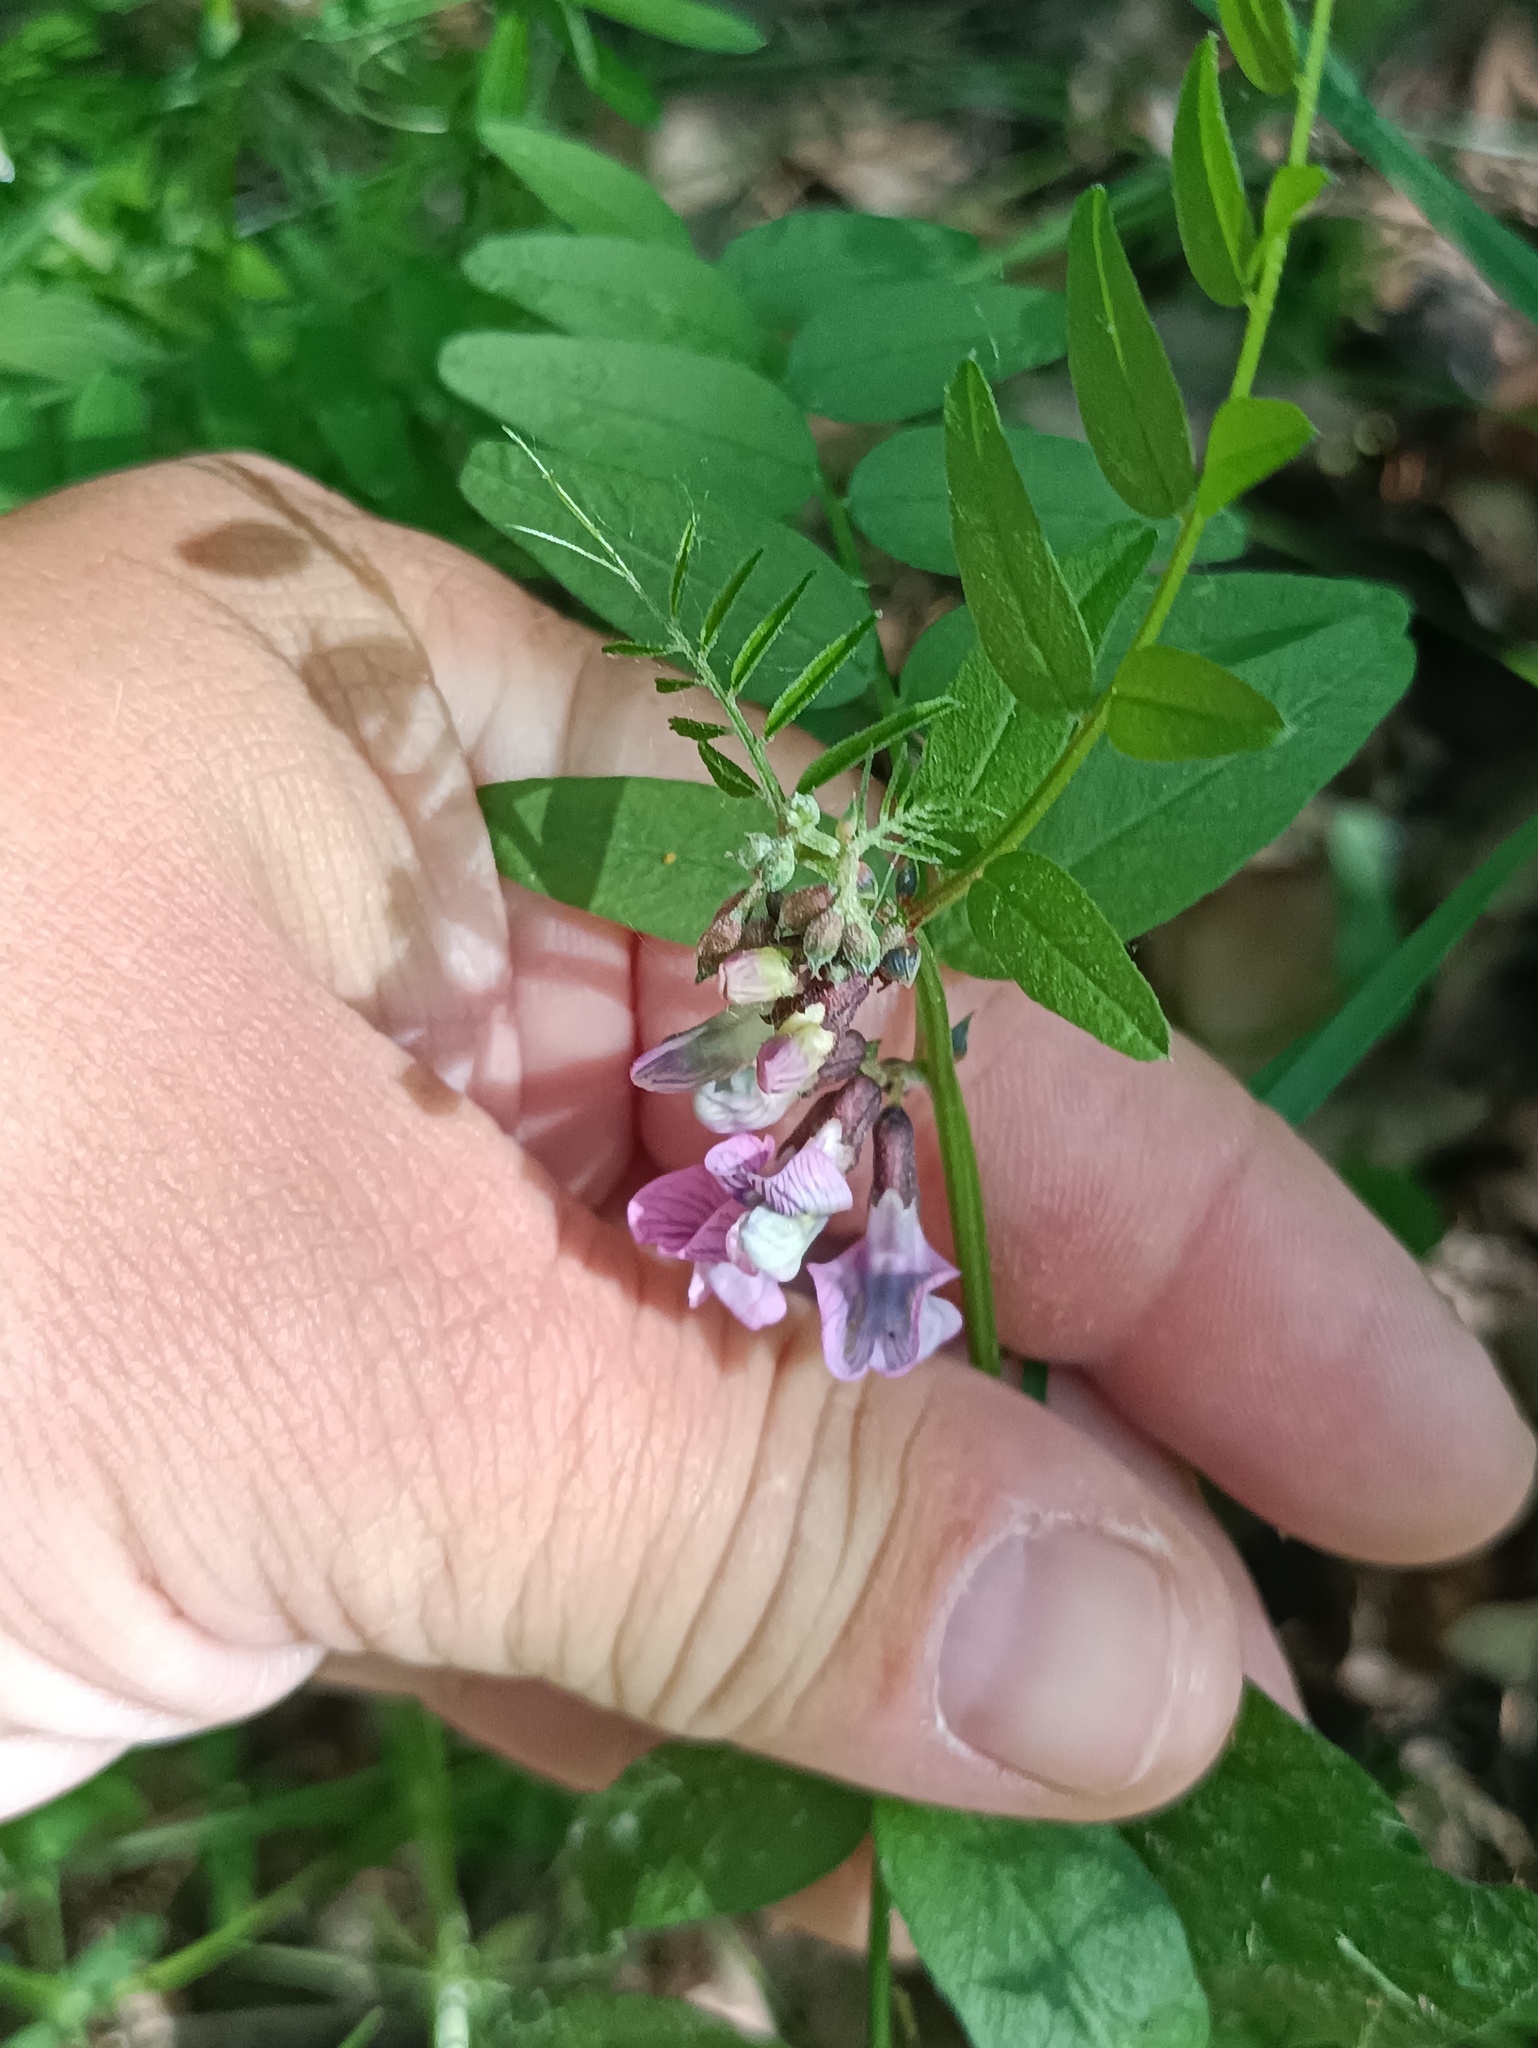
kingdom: Plantae
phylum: Tracheophyta
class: Magnoliopsida
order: Fabales
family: Fabaceae
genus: Vicia
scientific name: Vicia sepium
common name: Bush vetch
